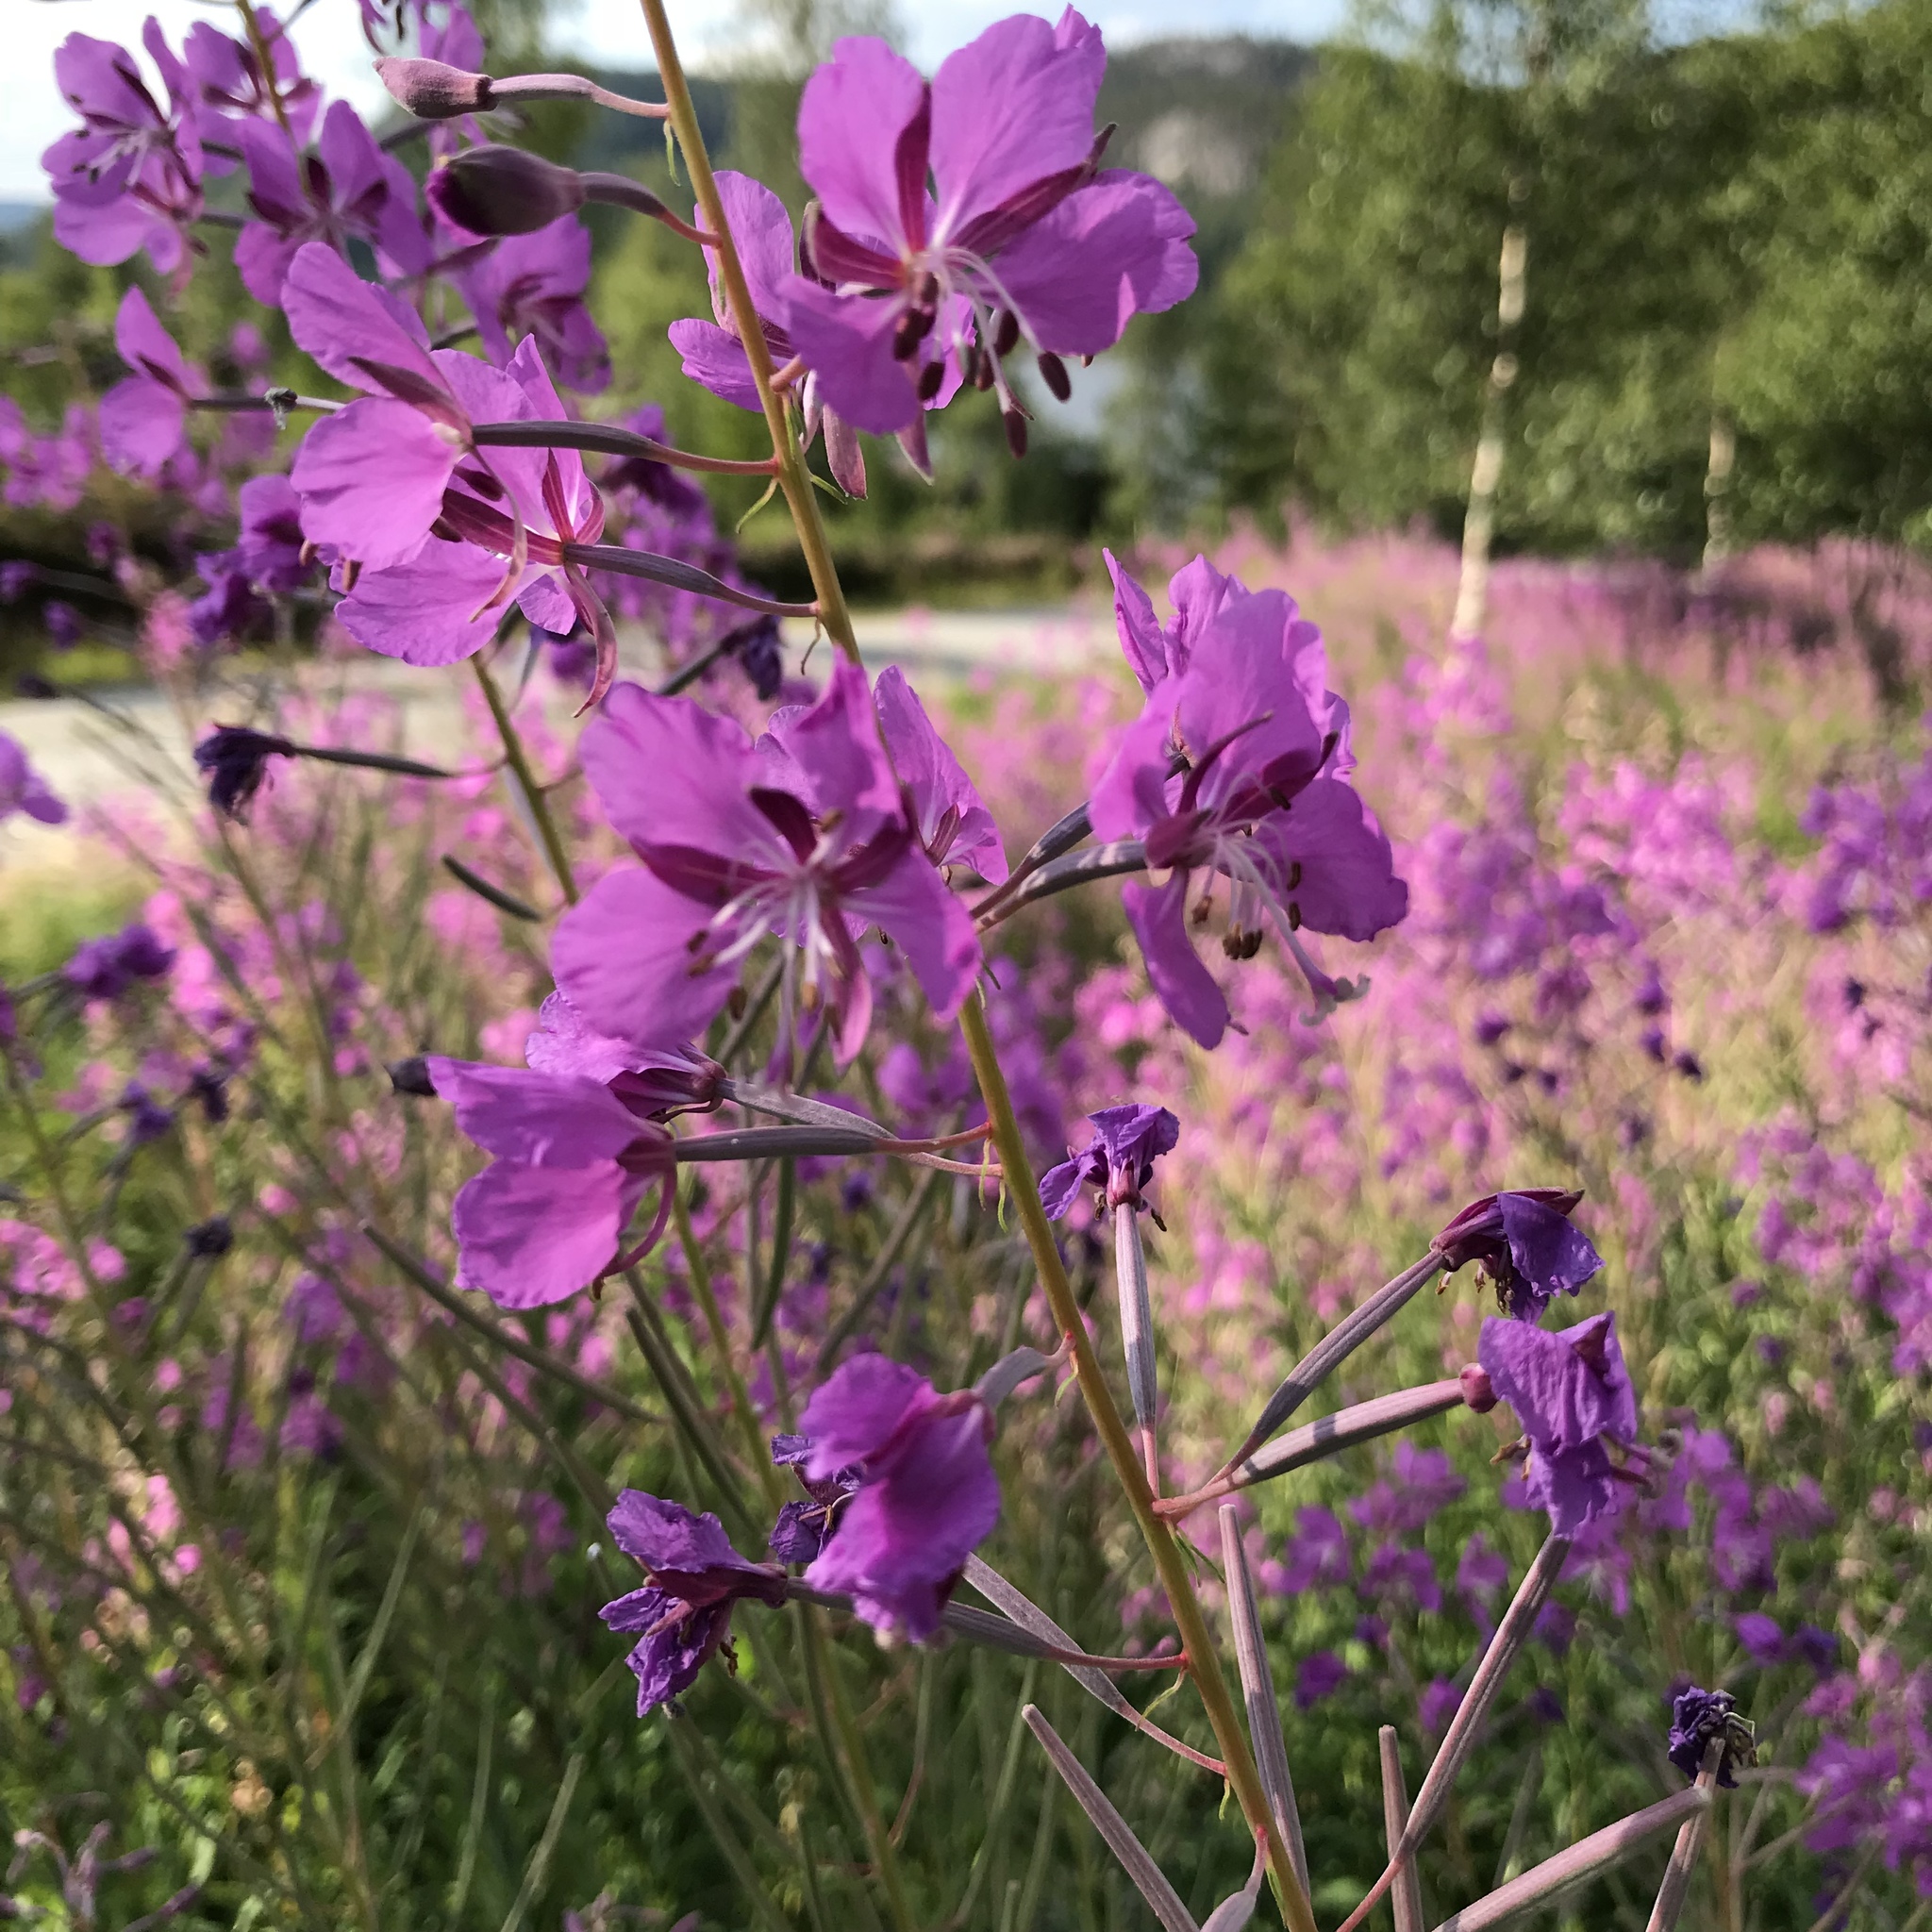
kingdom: Plantae
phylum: Tracheophyta
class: Magnoliopsida
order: Myrtales
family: Onagraceae
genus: Chamaenerion
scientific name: Chamaenerion angustifolium
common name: Fireweed
